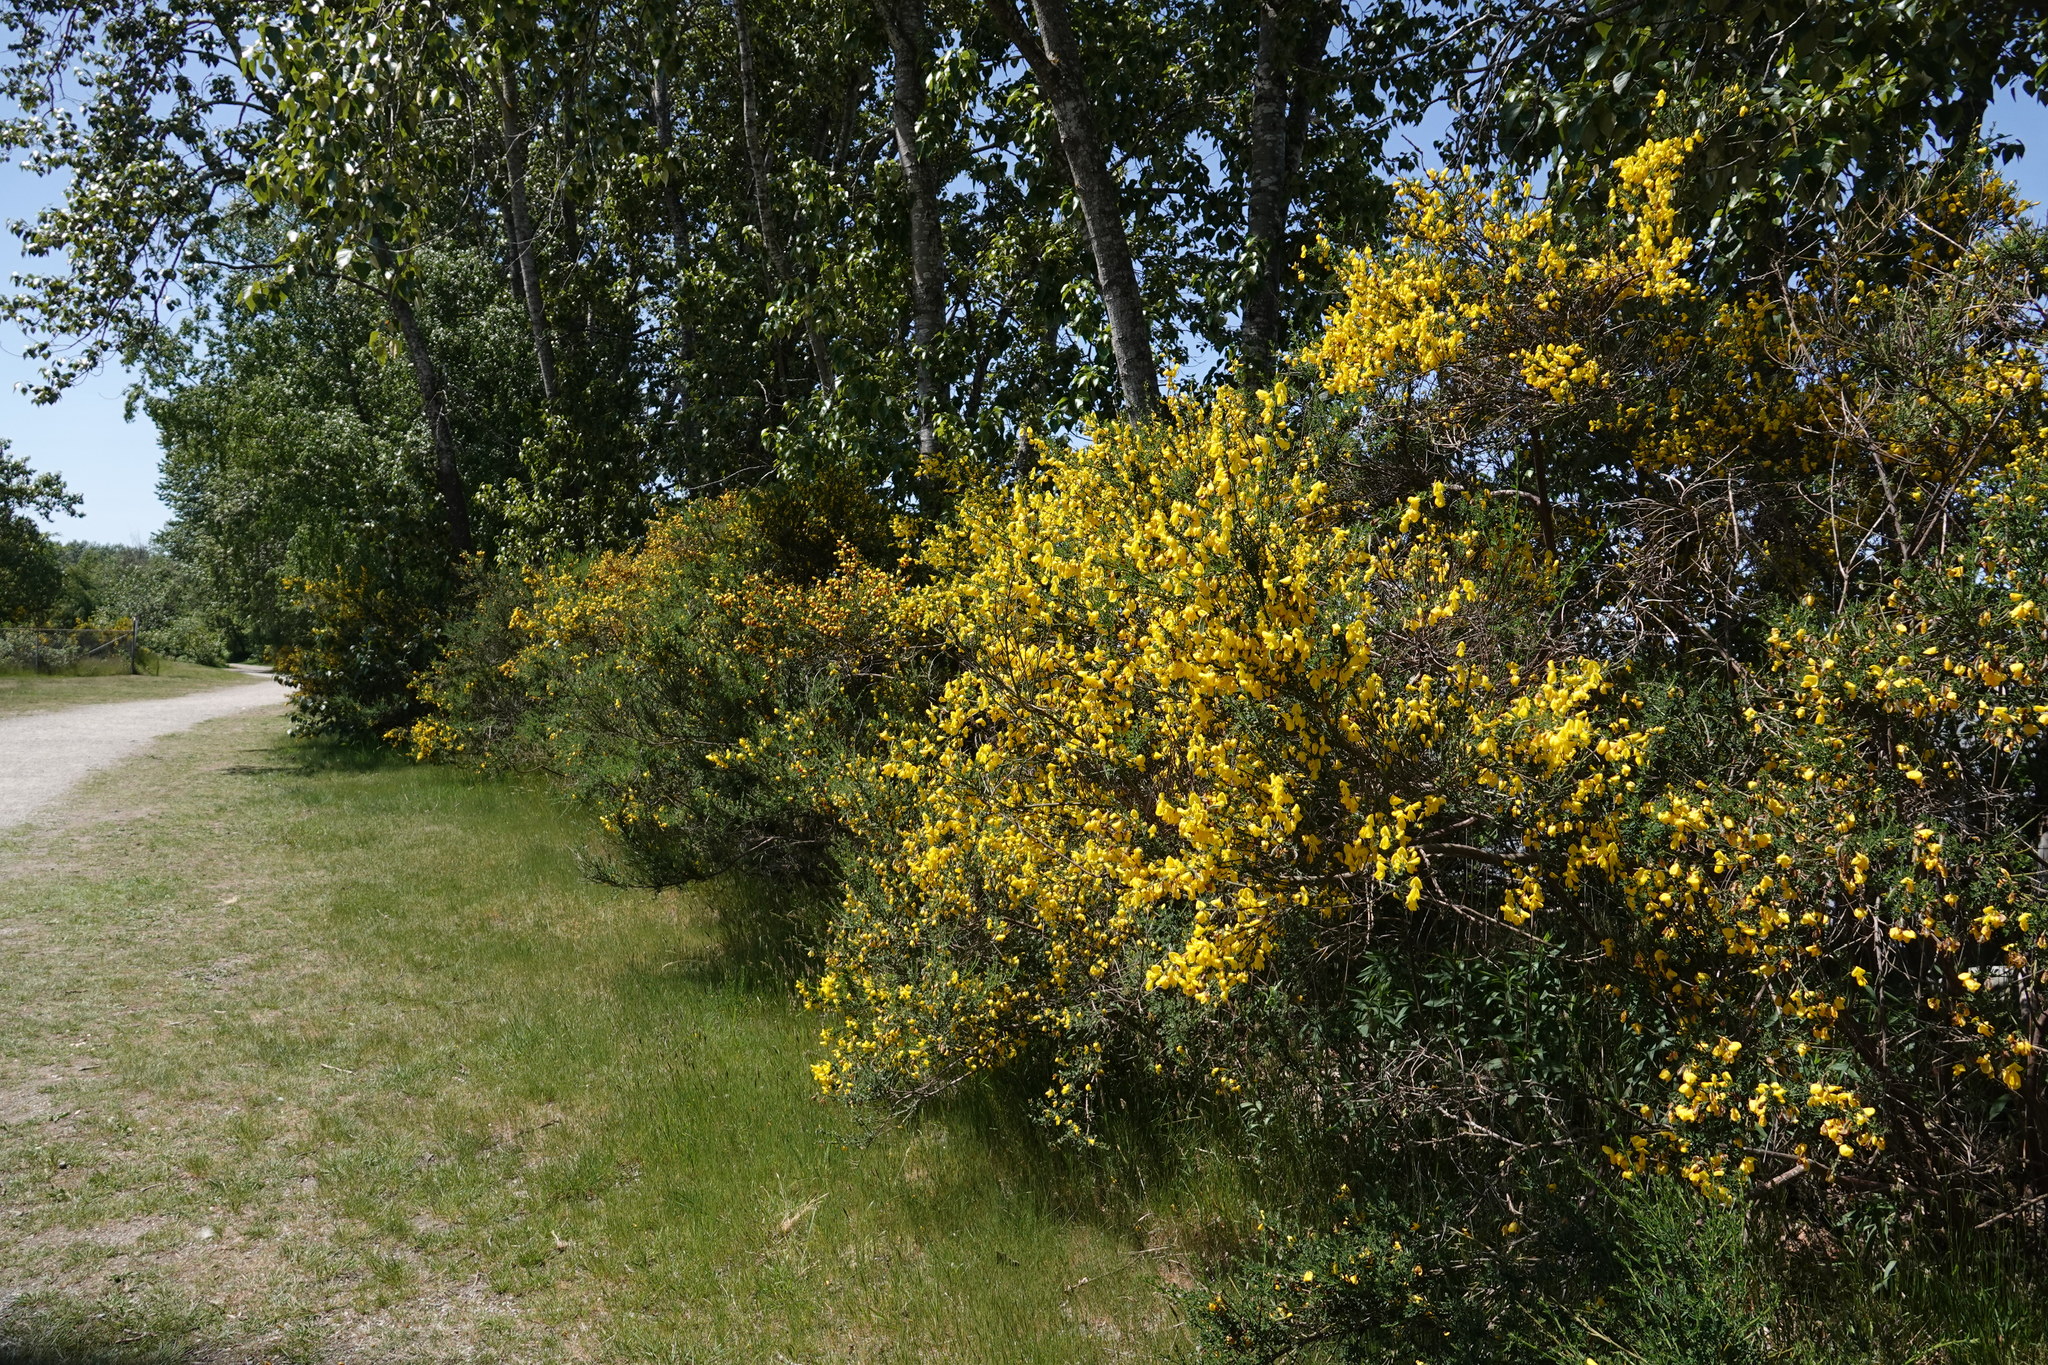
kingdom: Plantae
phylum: Tracheophyta
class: Magnoliopsida
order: Fabales
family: Fabaceae
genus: Cytisus
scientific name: Cytisus scoparius
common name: Scotch broom
